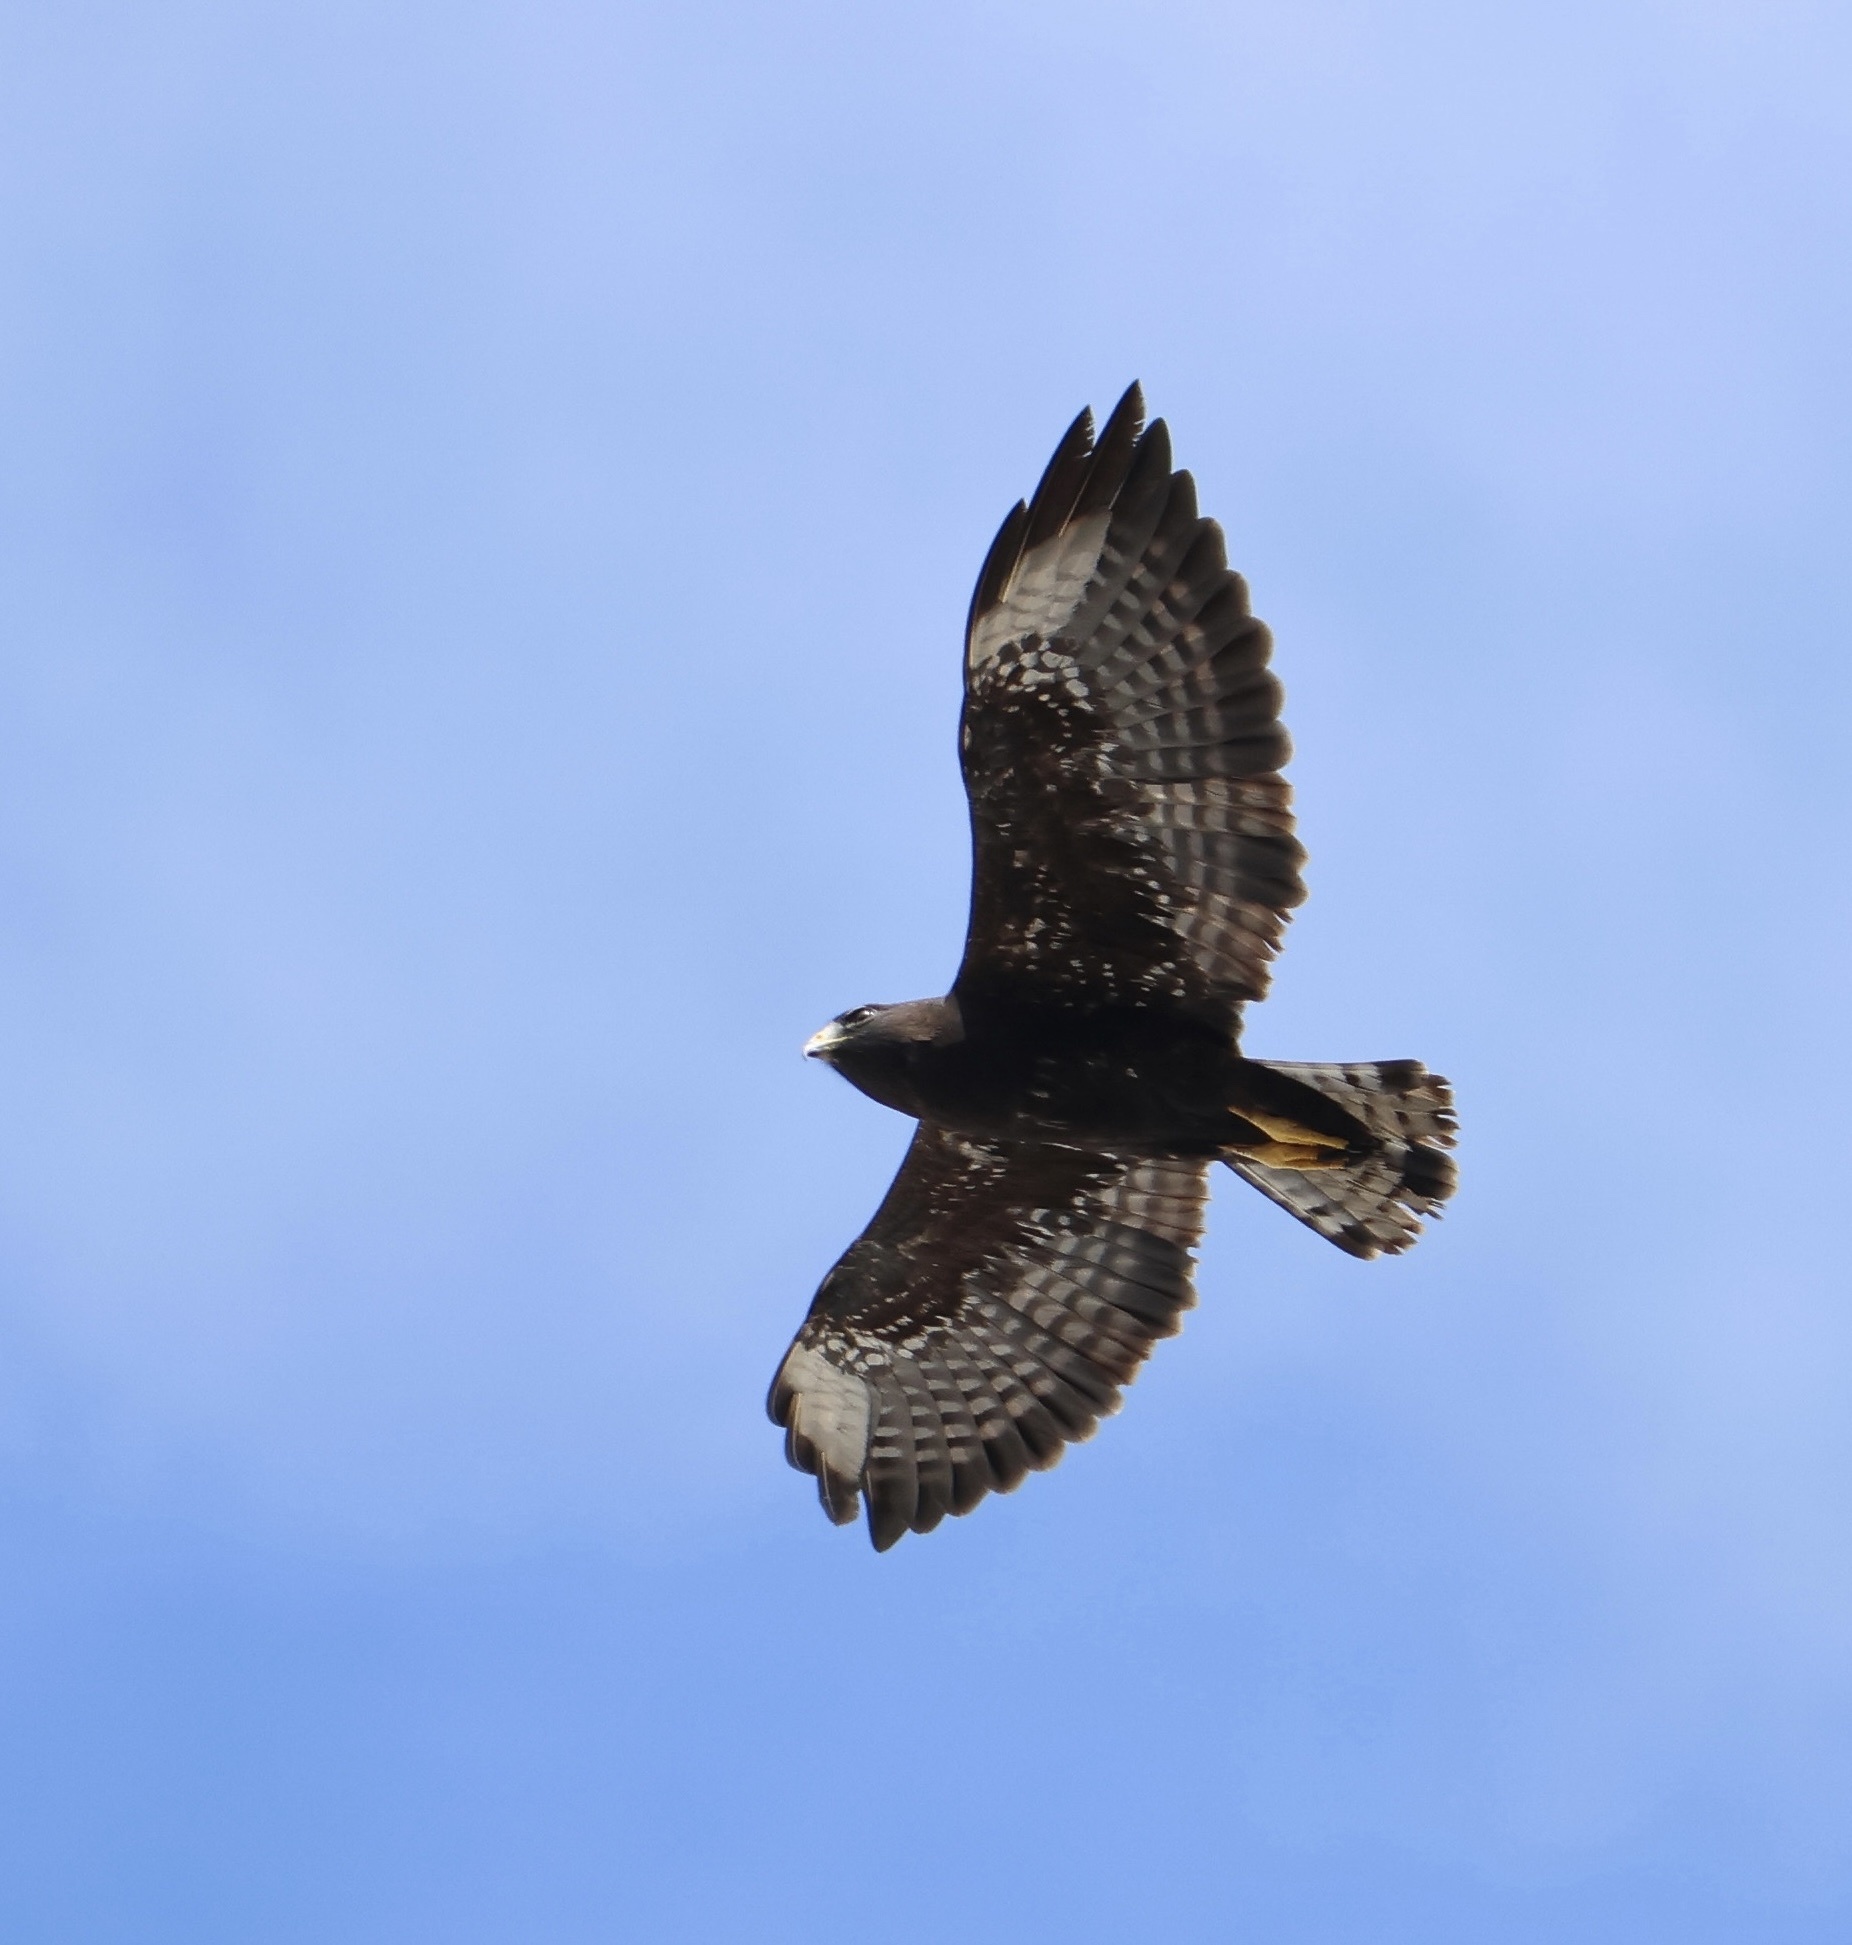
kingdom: Animalia
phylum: Chordata
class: Aves
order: Accipitriformes
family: Accipitridae
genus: Buteo
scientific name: Buteo brachyurus
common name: Short-tailed hawk
